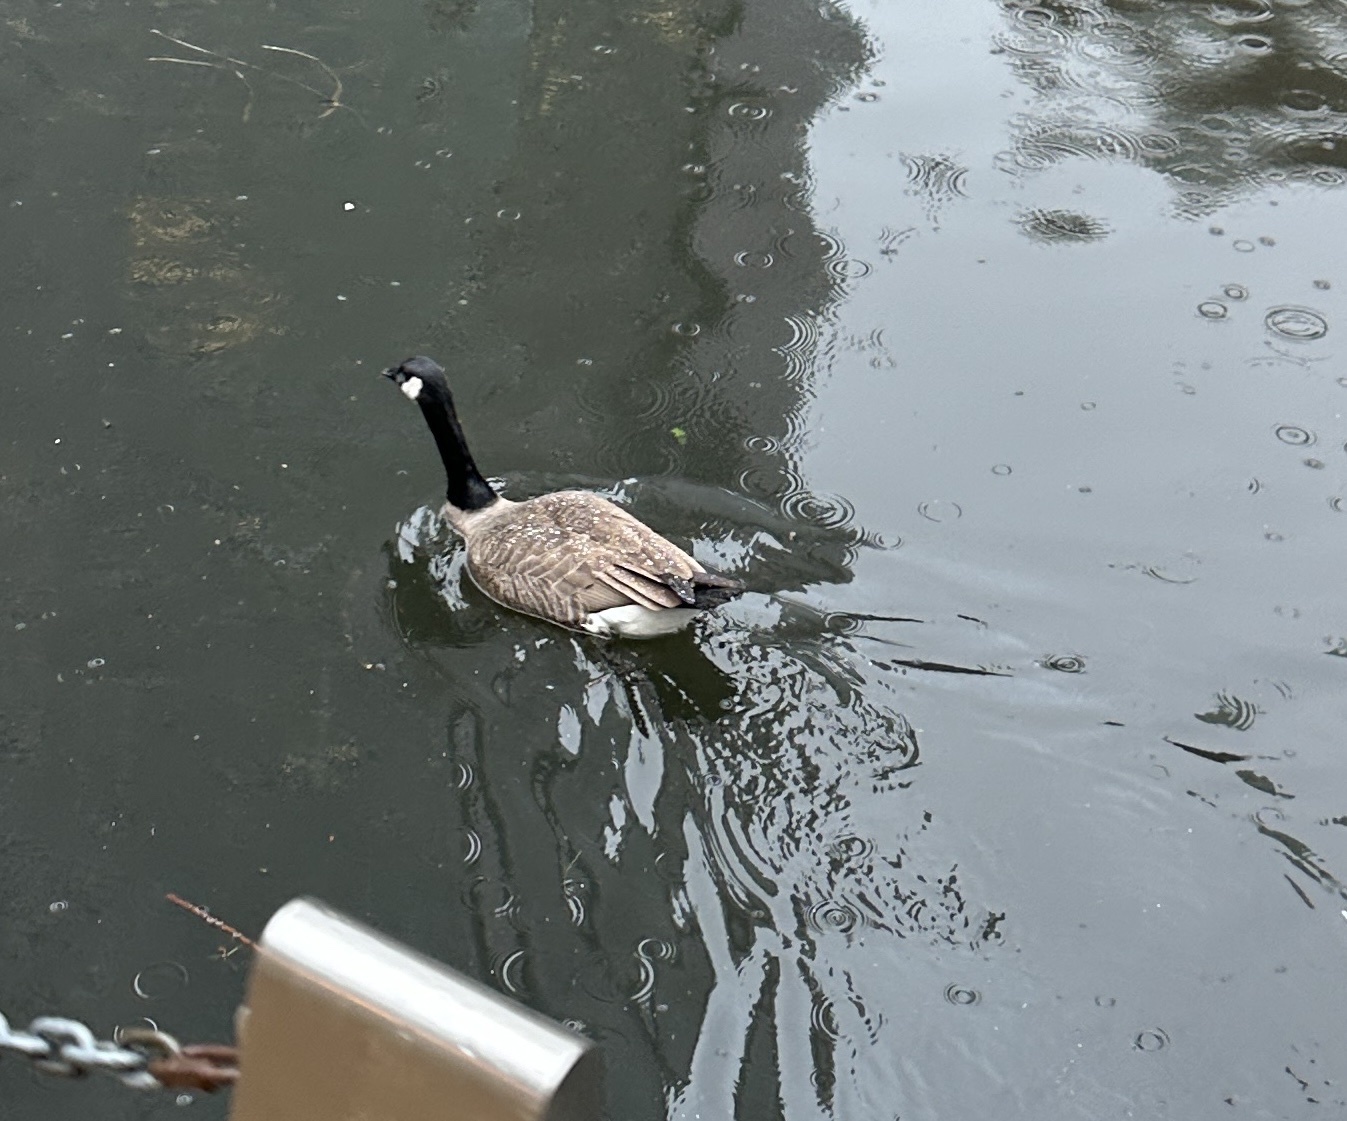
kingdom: Animalia
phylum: Chordata
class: Aves
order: Anseriformes
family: Anatidae
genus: Branta
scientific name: Branta canadensis
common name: Canada goose
